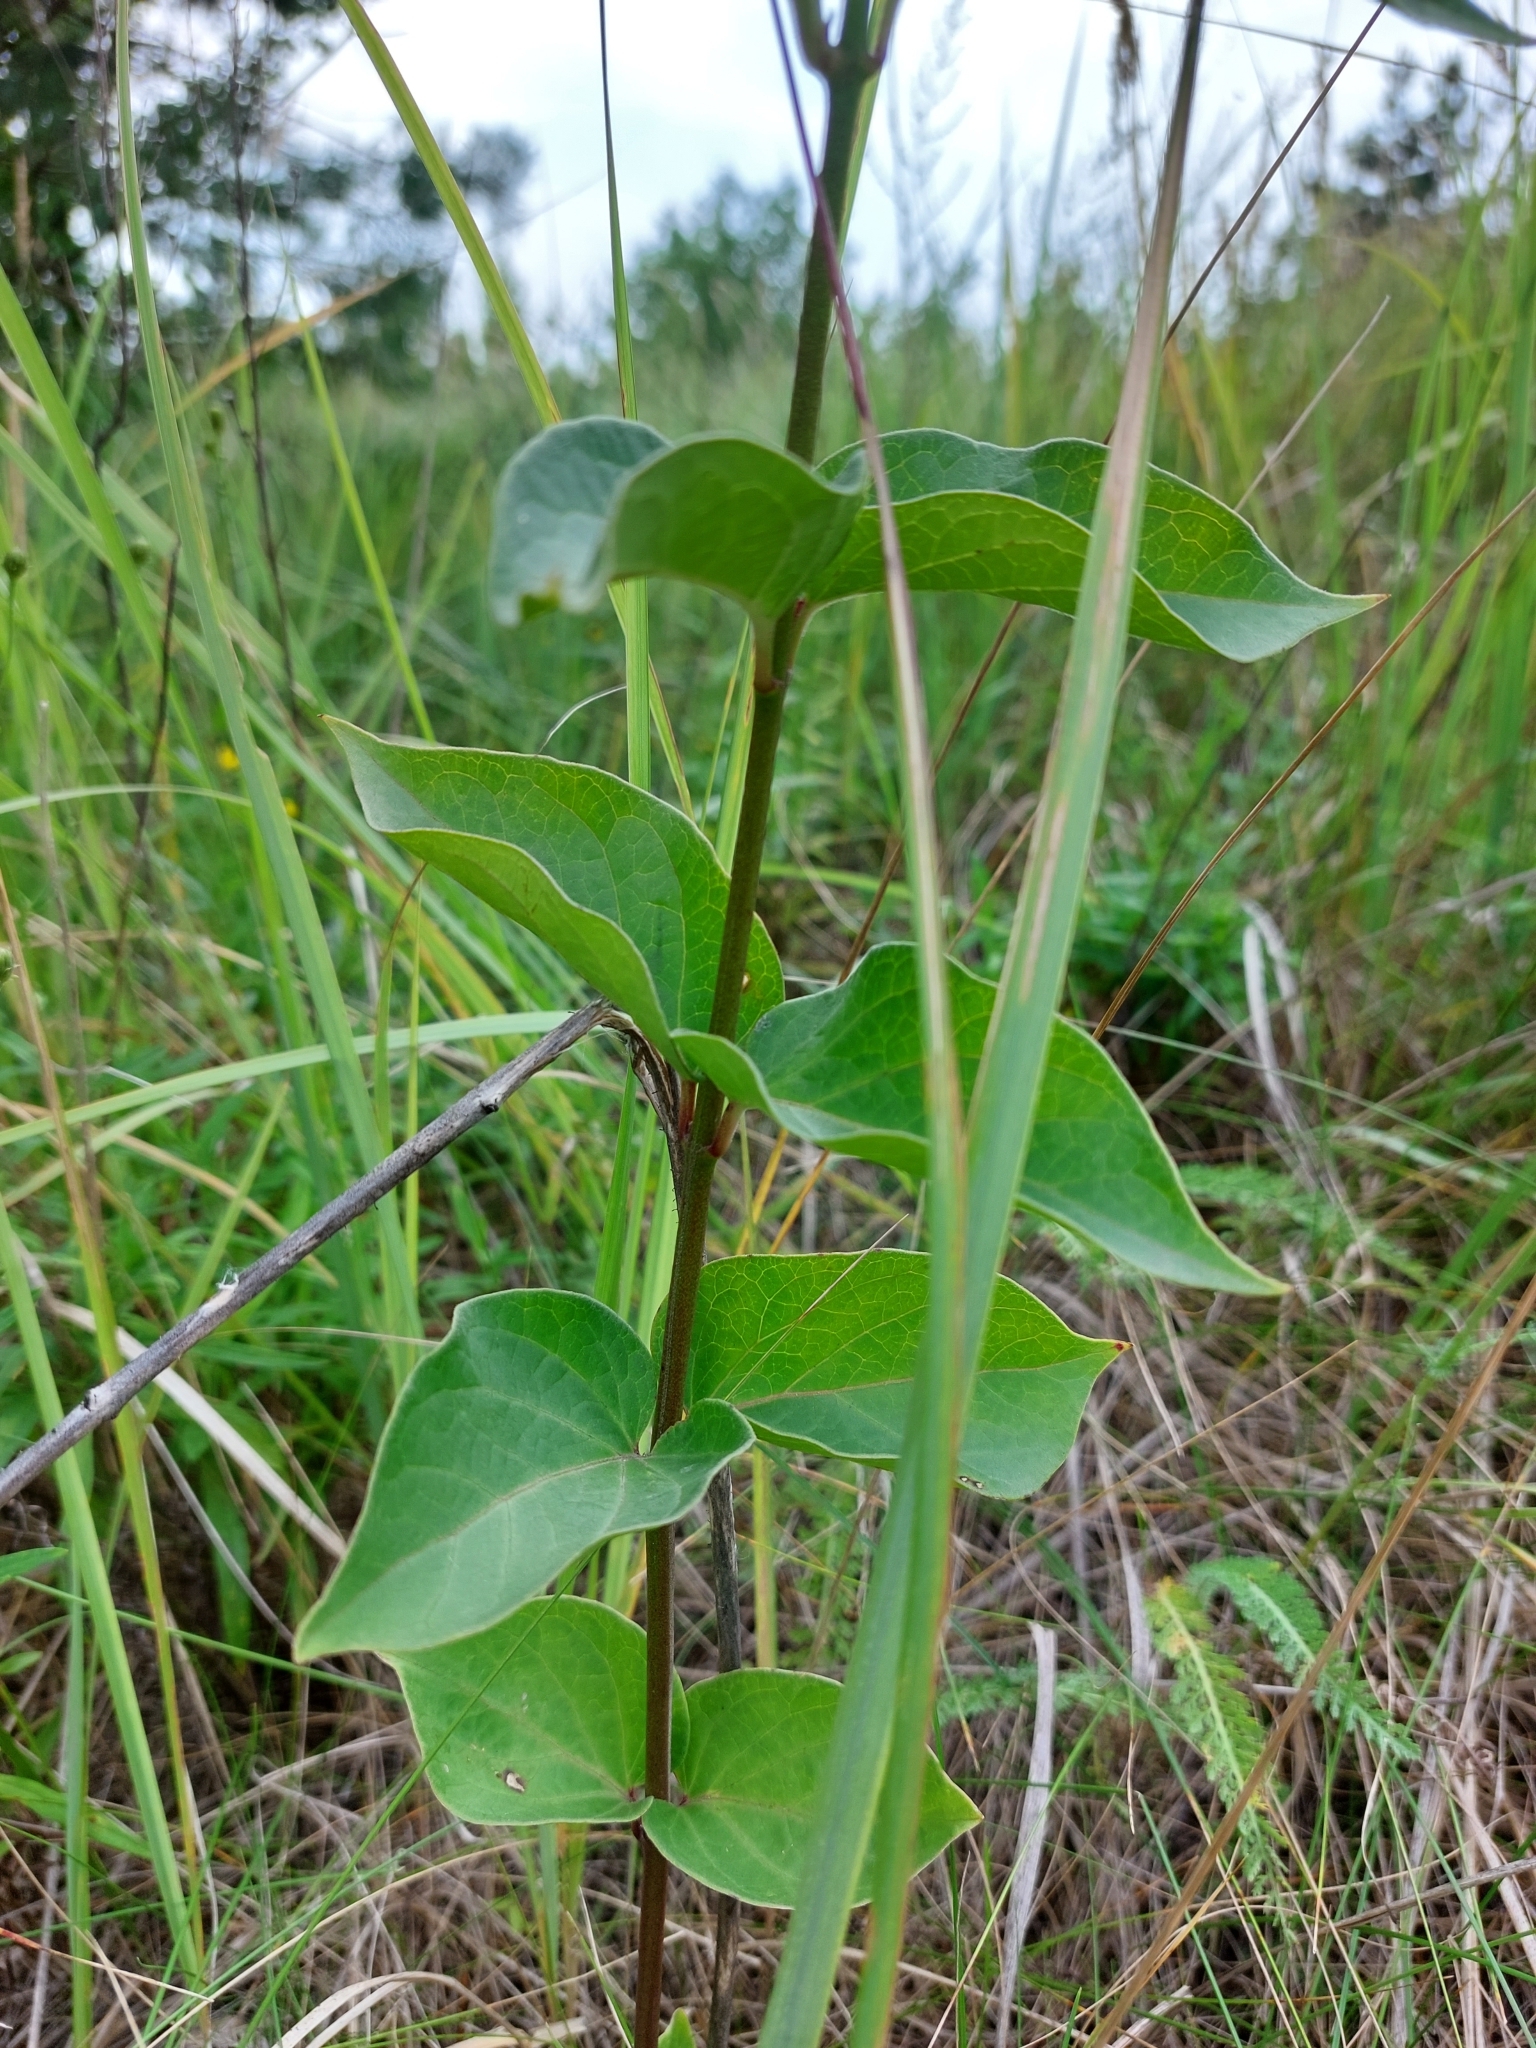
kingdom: Plantae
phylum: Tracheophyta
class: Magnoliopsida
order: Gentianales
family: Apocynaceae
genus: Vincetoxicum
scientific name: Vincetoxicum hirundinaria
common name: White swallowwort
